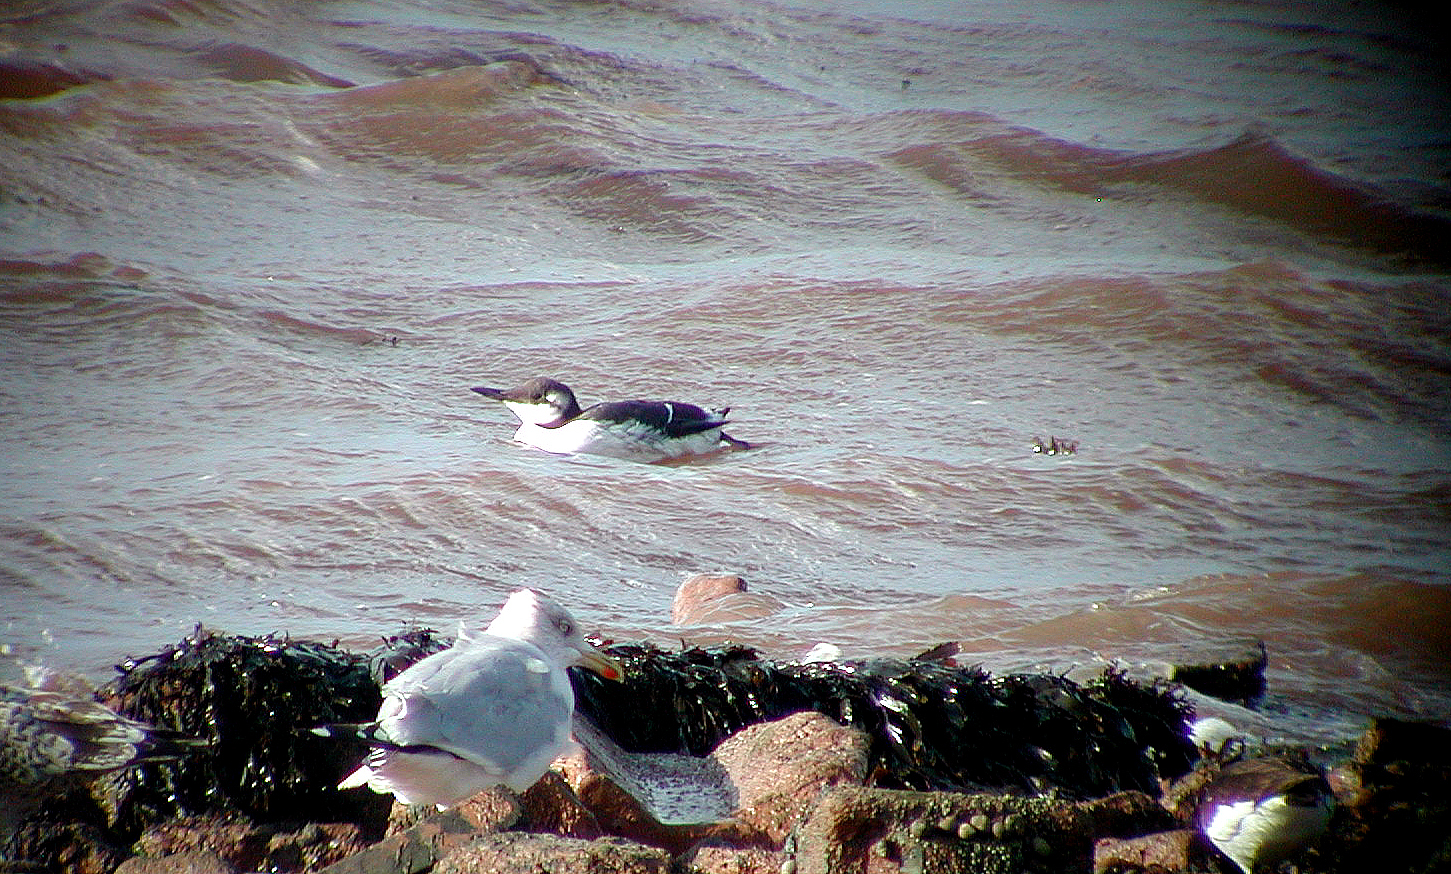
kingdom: Animalia
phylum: Chordata
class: Aves
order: Charadriiformes
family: Alcidae
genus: Uria
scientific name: Uria aalge
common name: Common murre
